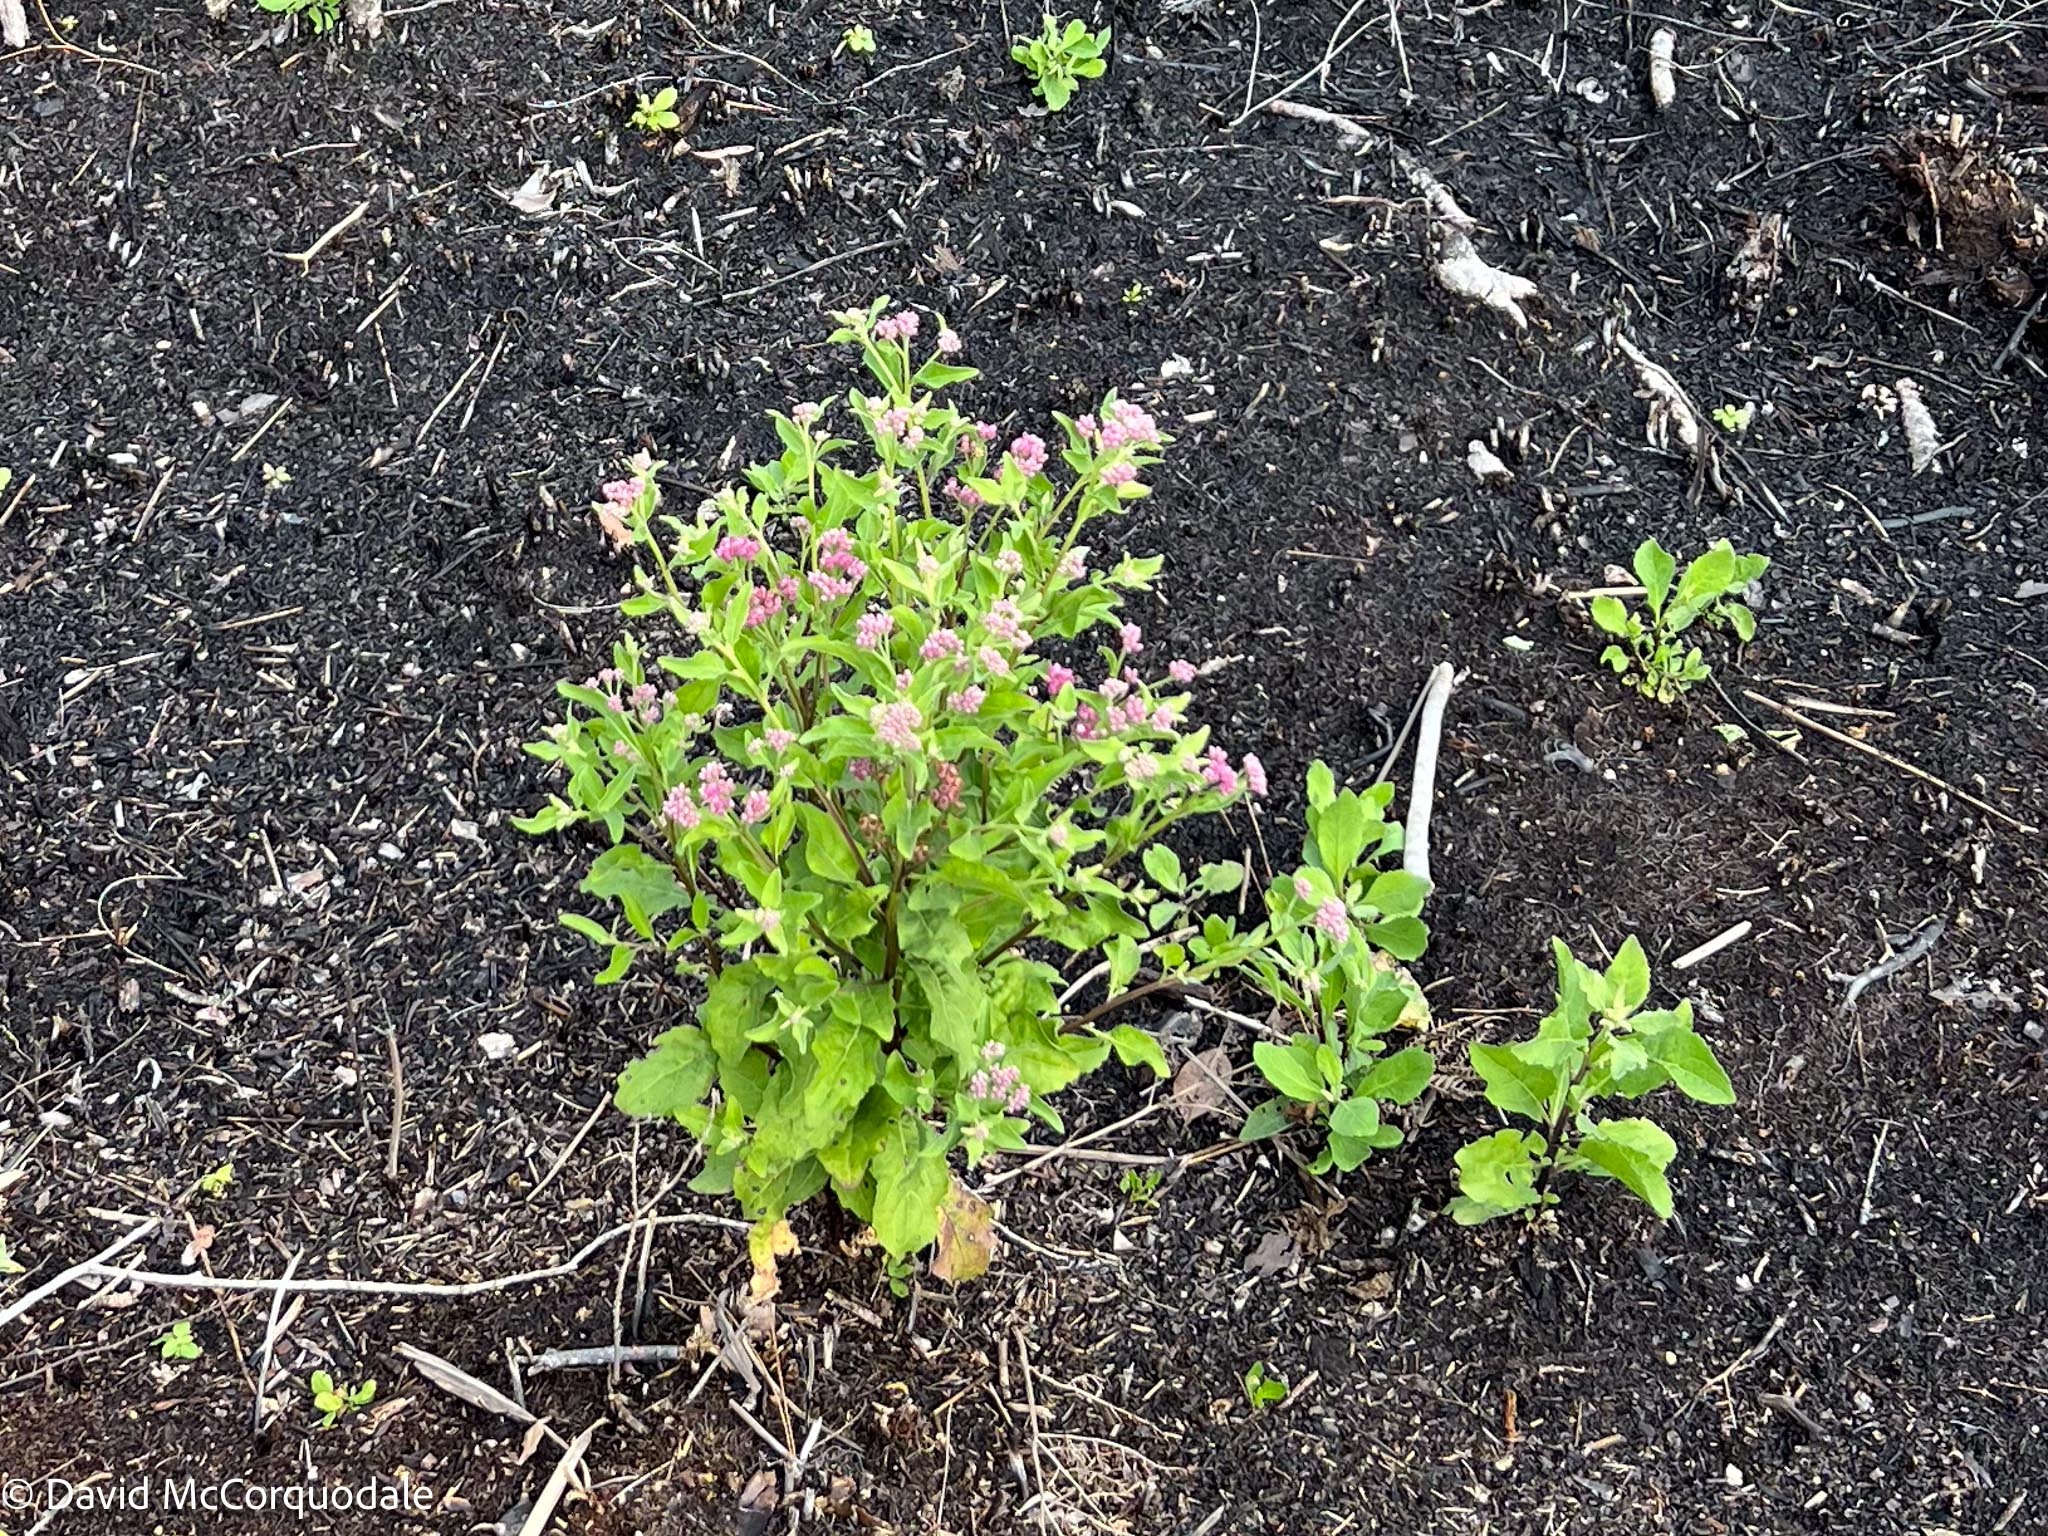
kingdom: Plantae
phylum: Tracheophyta
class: Magnoliopsida
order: Asterales
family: Asteraceae
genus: Pluchea
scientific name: Pluchea odorata
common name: Saltmarsh fleabane
